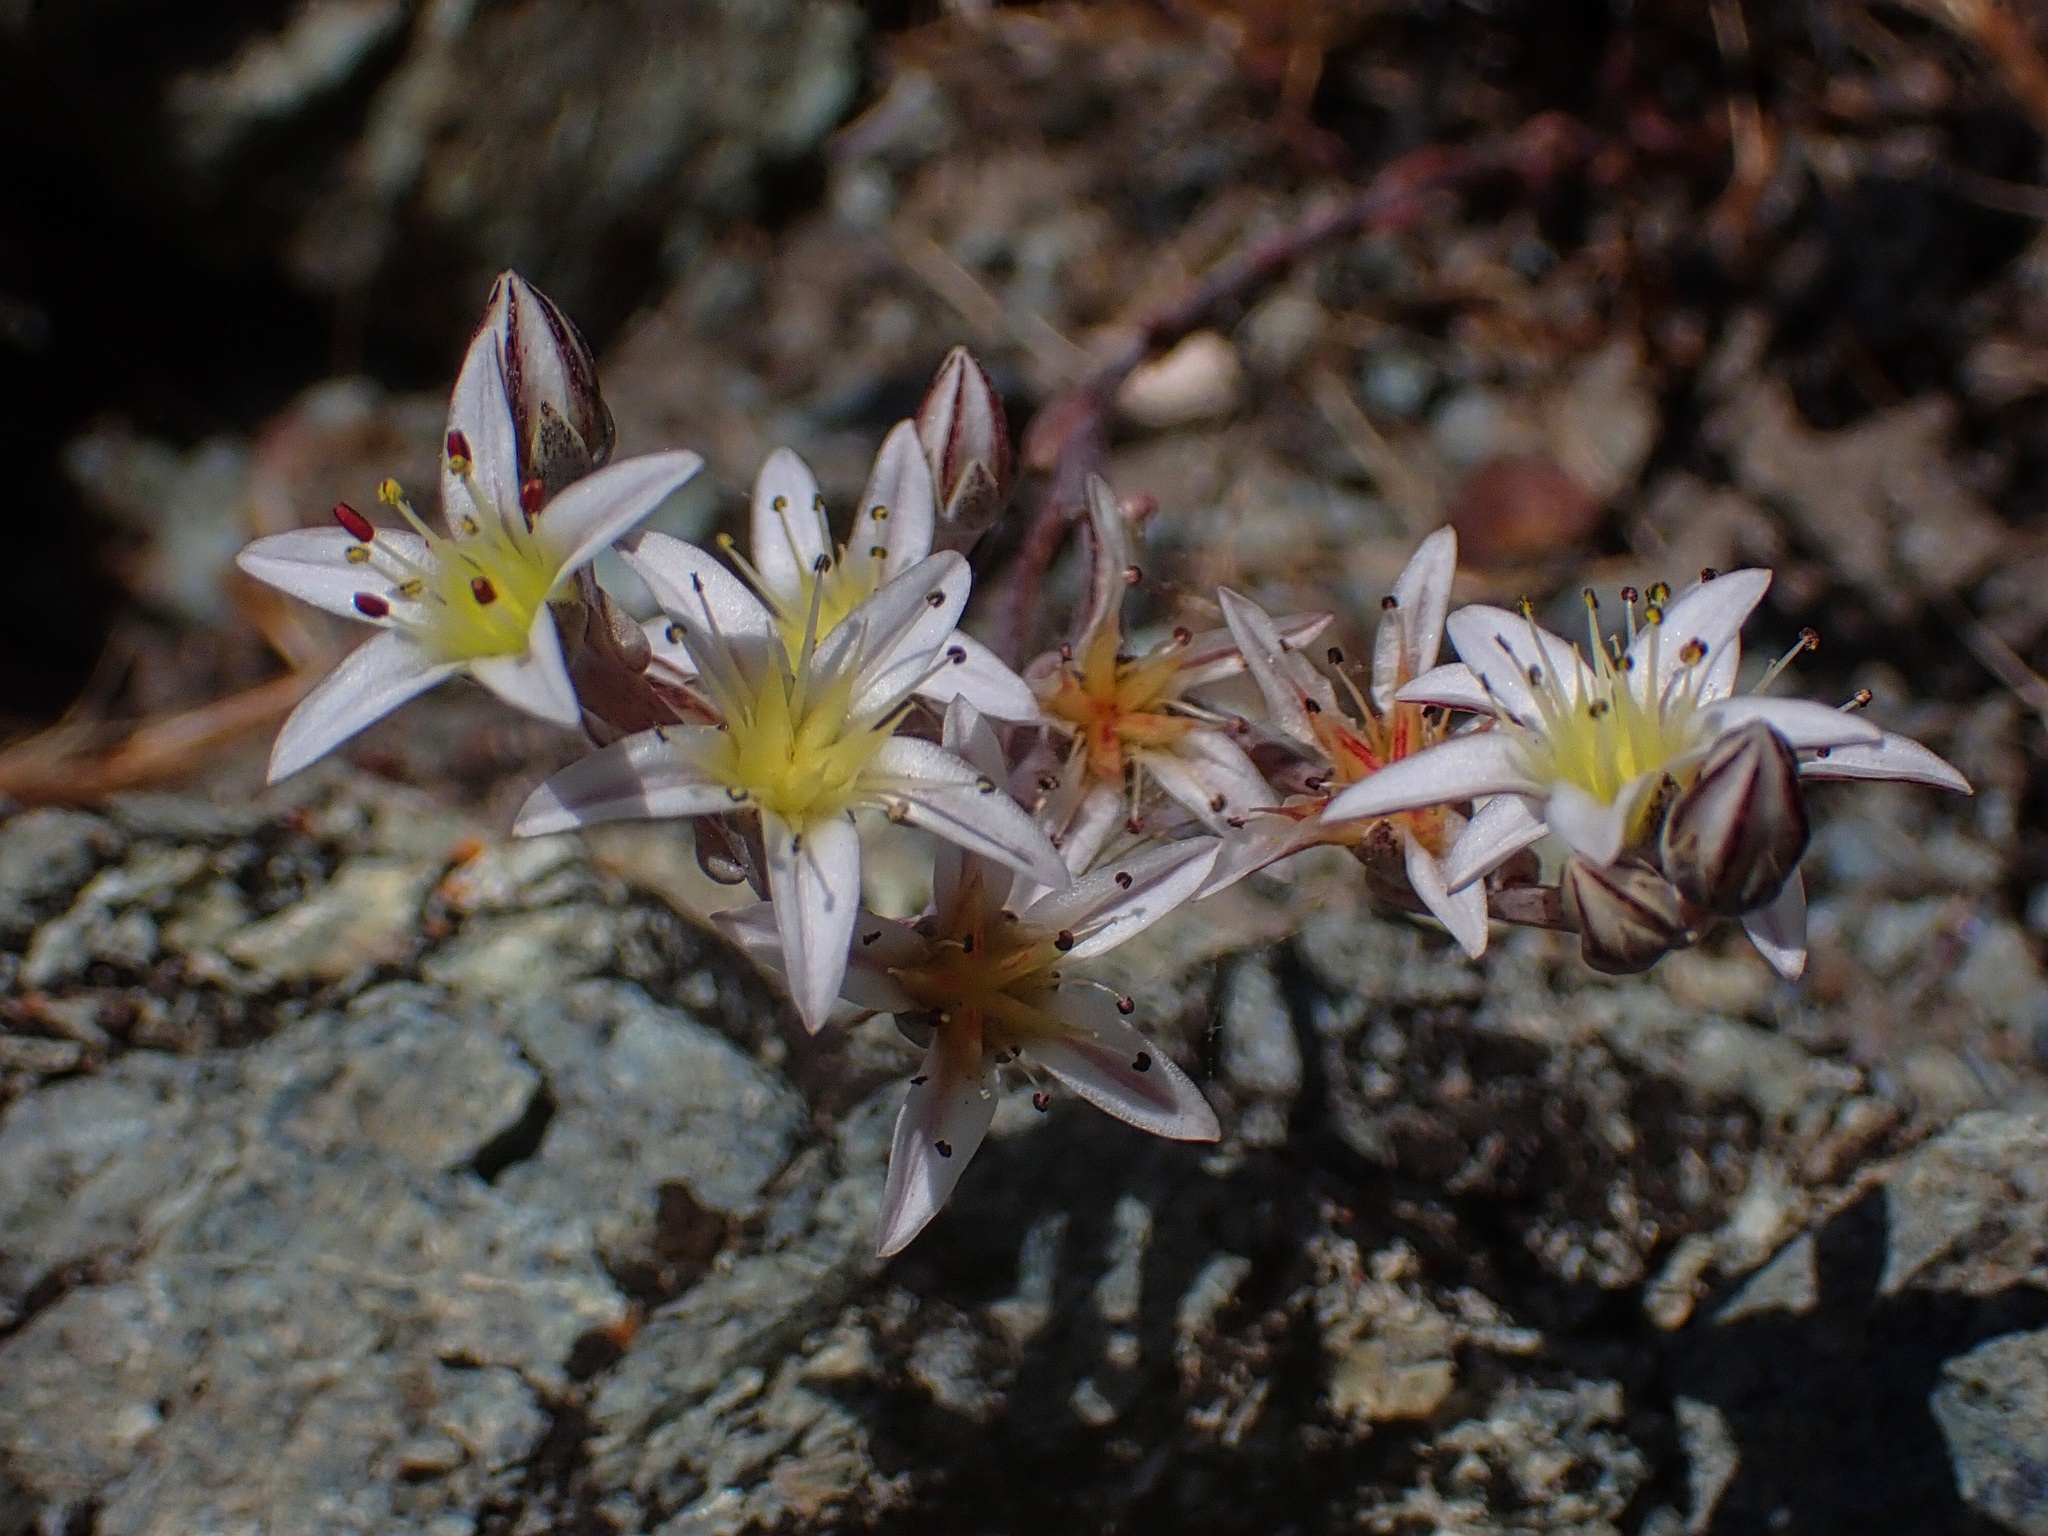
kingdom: Plantae
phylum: Tracheophyta
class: Magnoliopsida
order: Saxifragales
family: Crassulaceae
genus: Dudleya
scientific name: Dudleya blochmaniae
